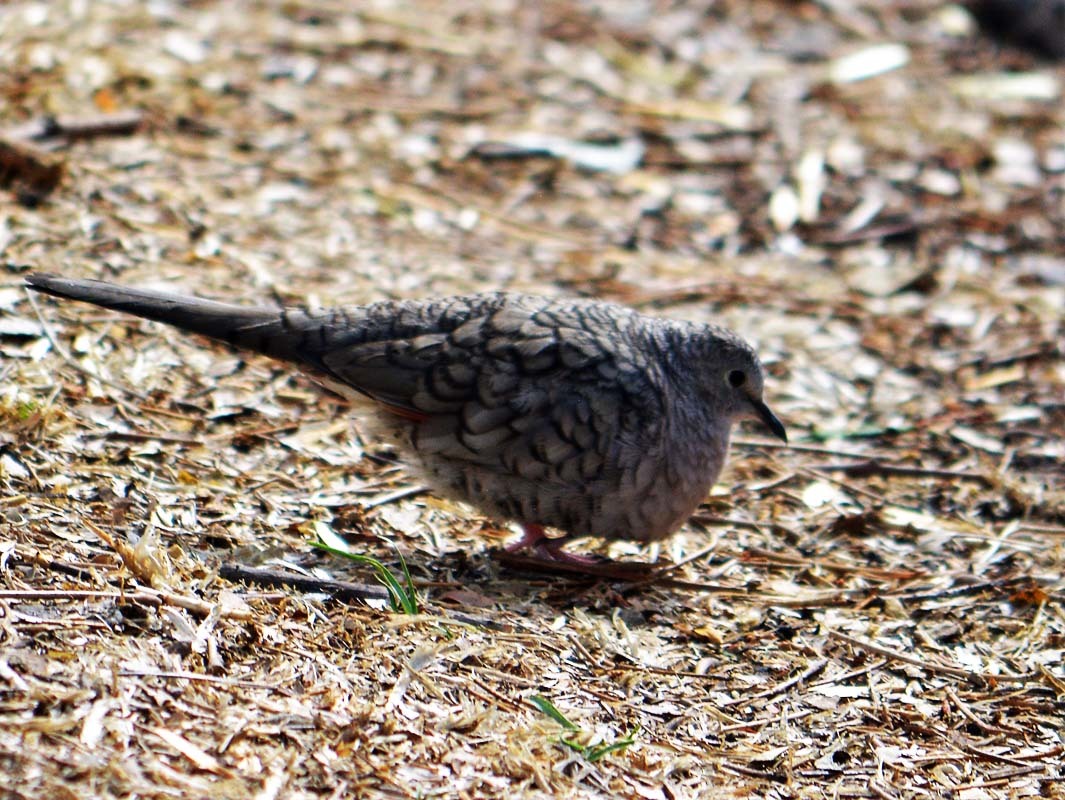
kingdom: Animalia
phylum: Chordata
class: Aves
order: Columbiformes
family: Columbidae
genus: Columbina
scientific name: Columbina inca
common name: Inca dove
